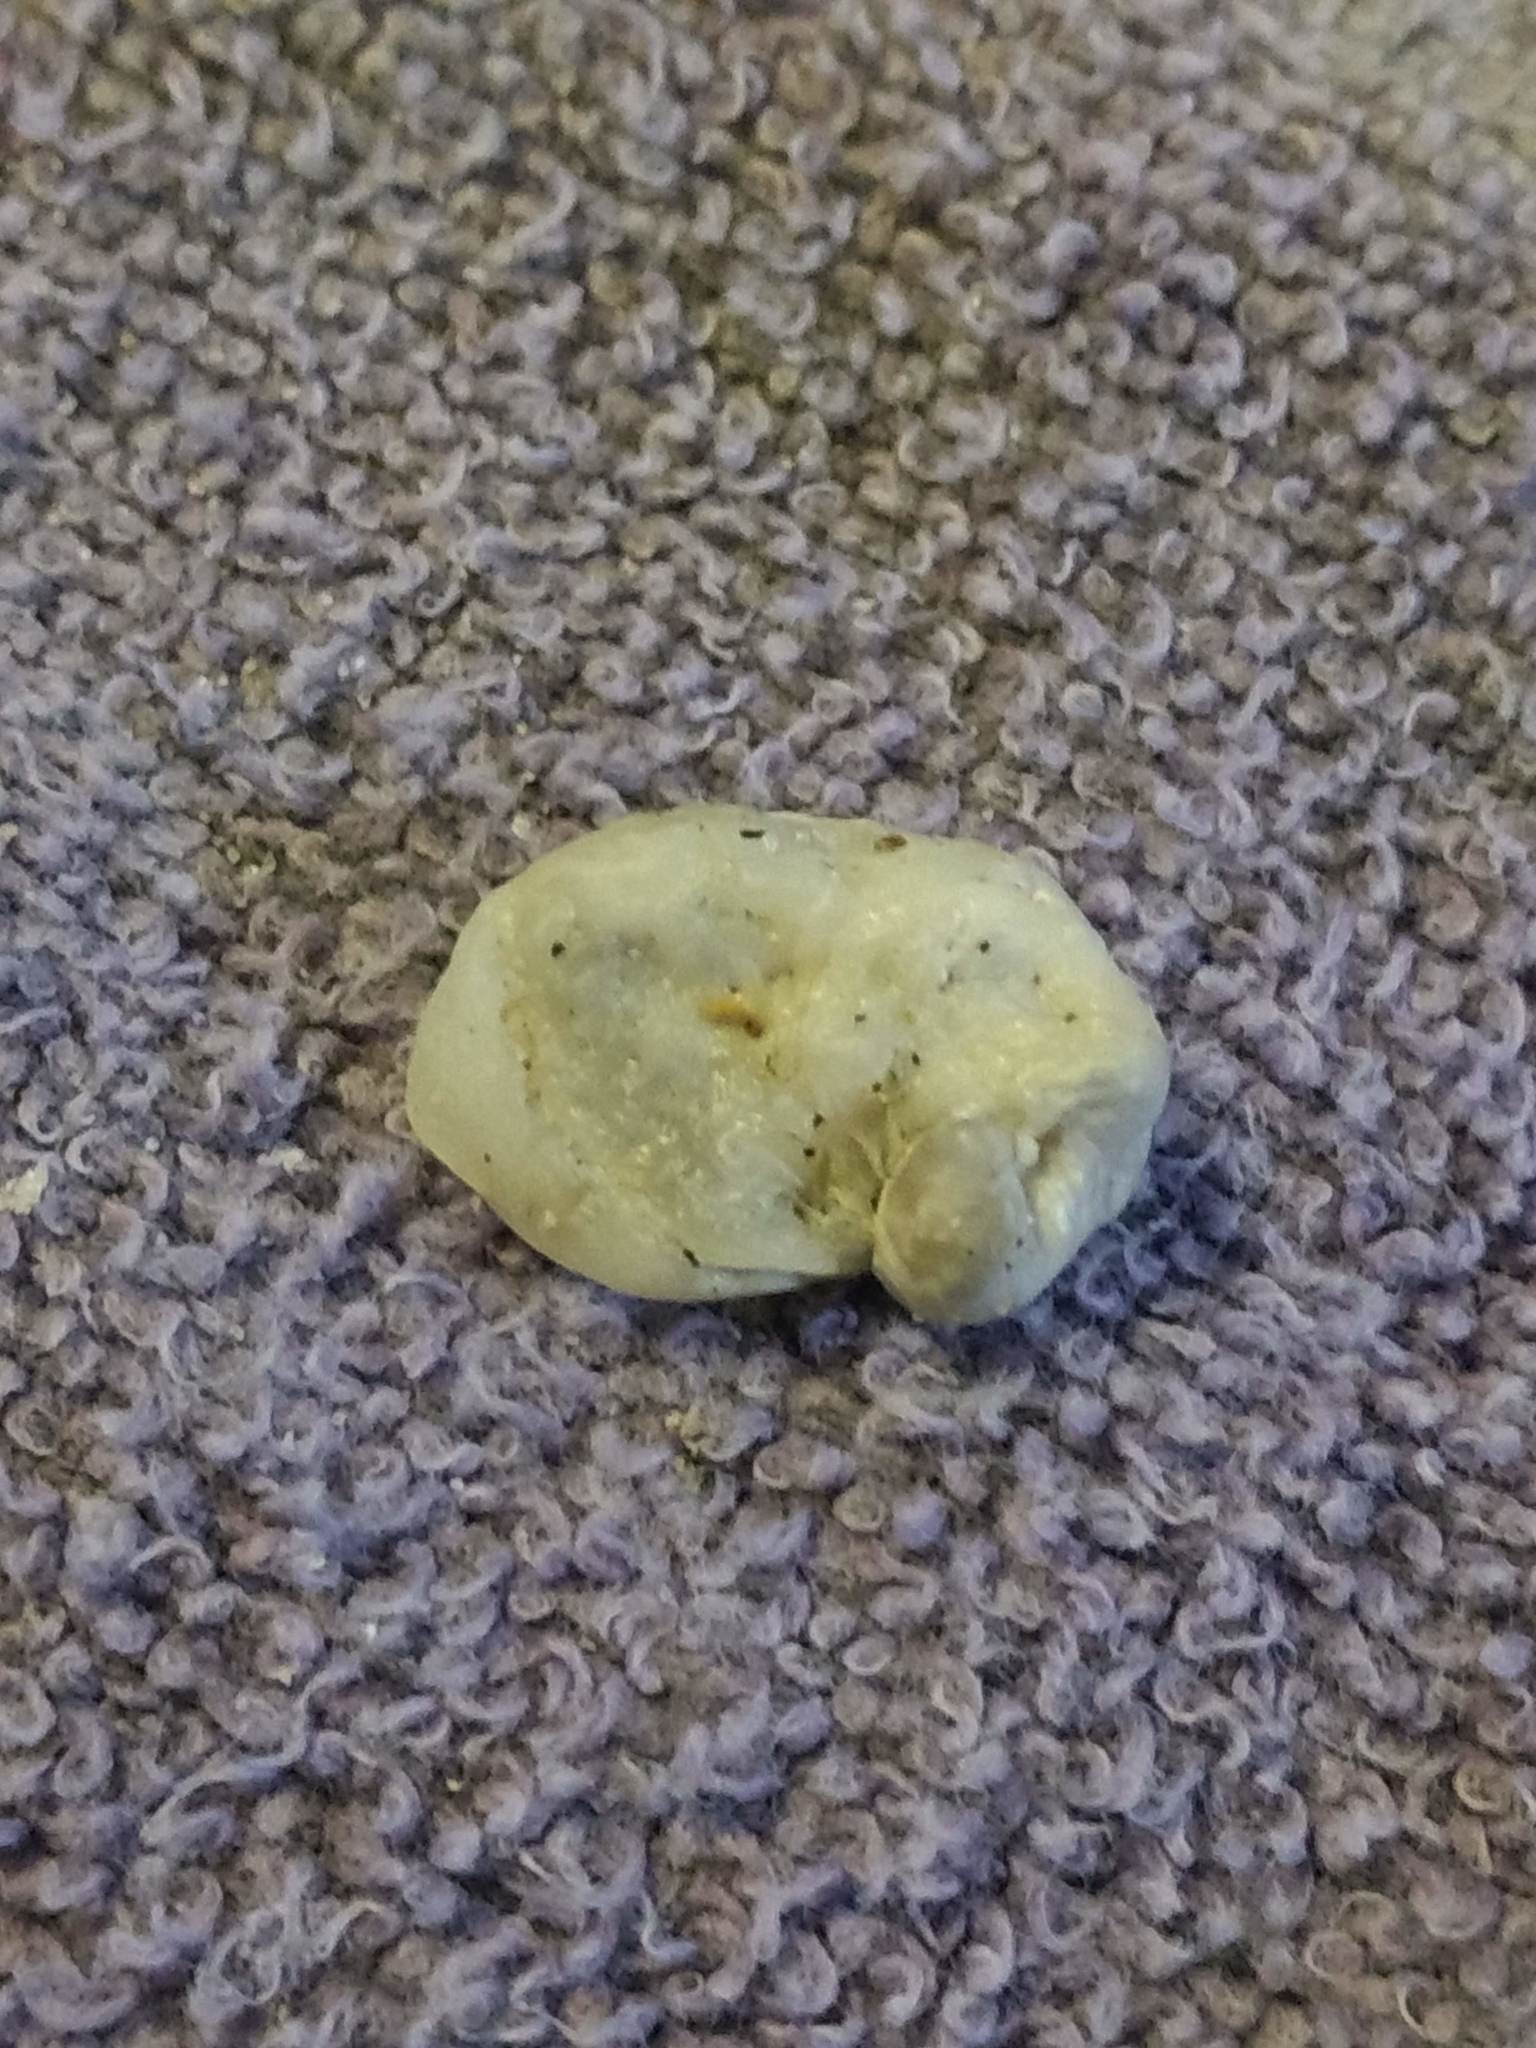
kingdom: Animalia
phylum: Mollusca
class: Bivalvia
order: Venerida
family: Chamidae
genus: Pseudochama
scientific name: Pseudochama exogyra
